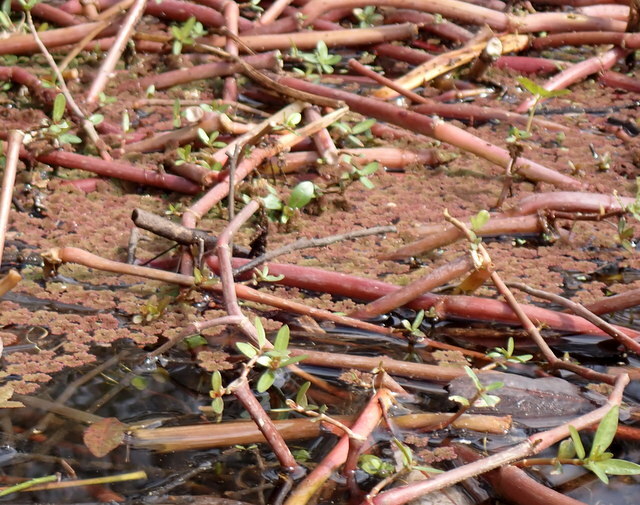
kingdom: Plantae
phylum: Tracheophyta
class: Magnoliopsida
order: Caryophyllales
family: Amaranthaceae
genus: Alternanthera
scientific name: Alternanthera philoxeroides
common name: Alligatorweed
